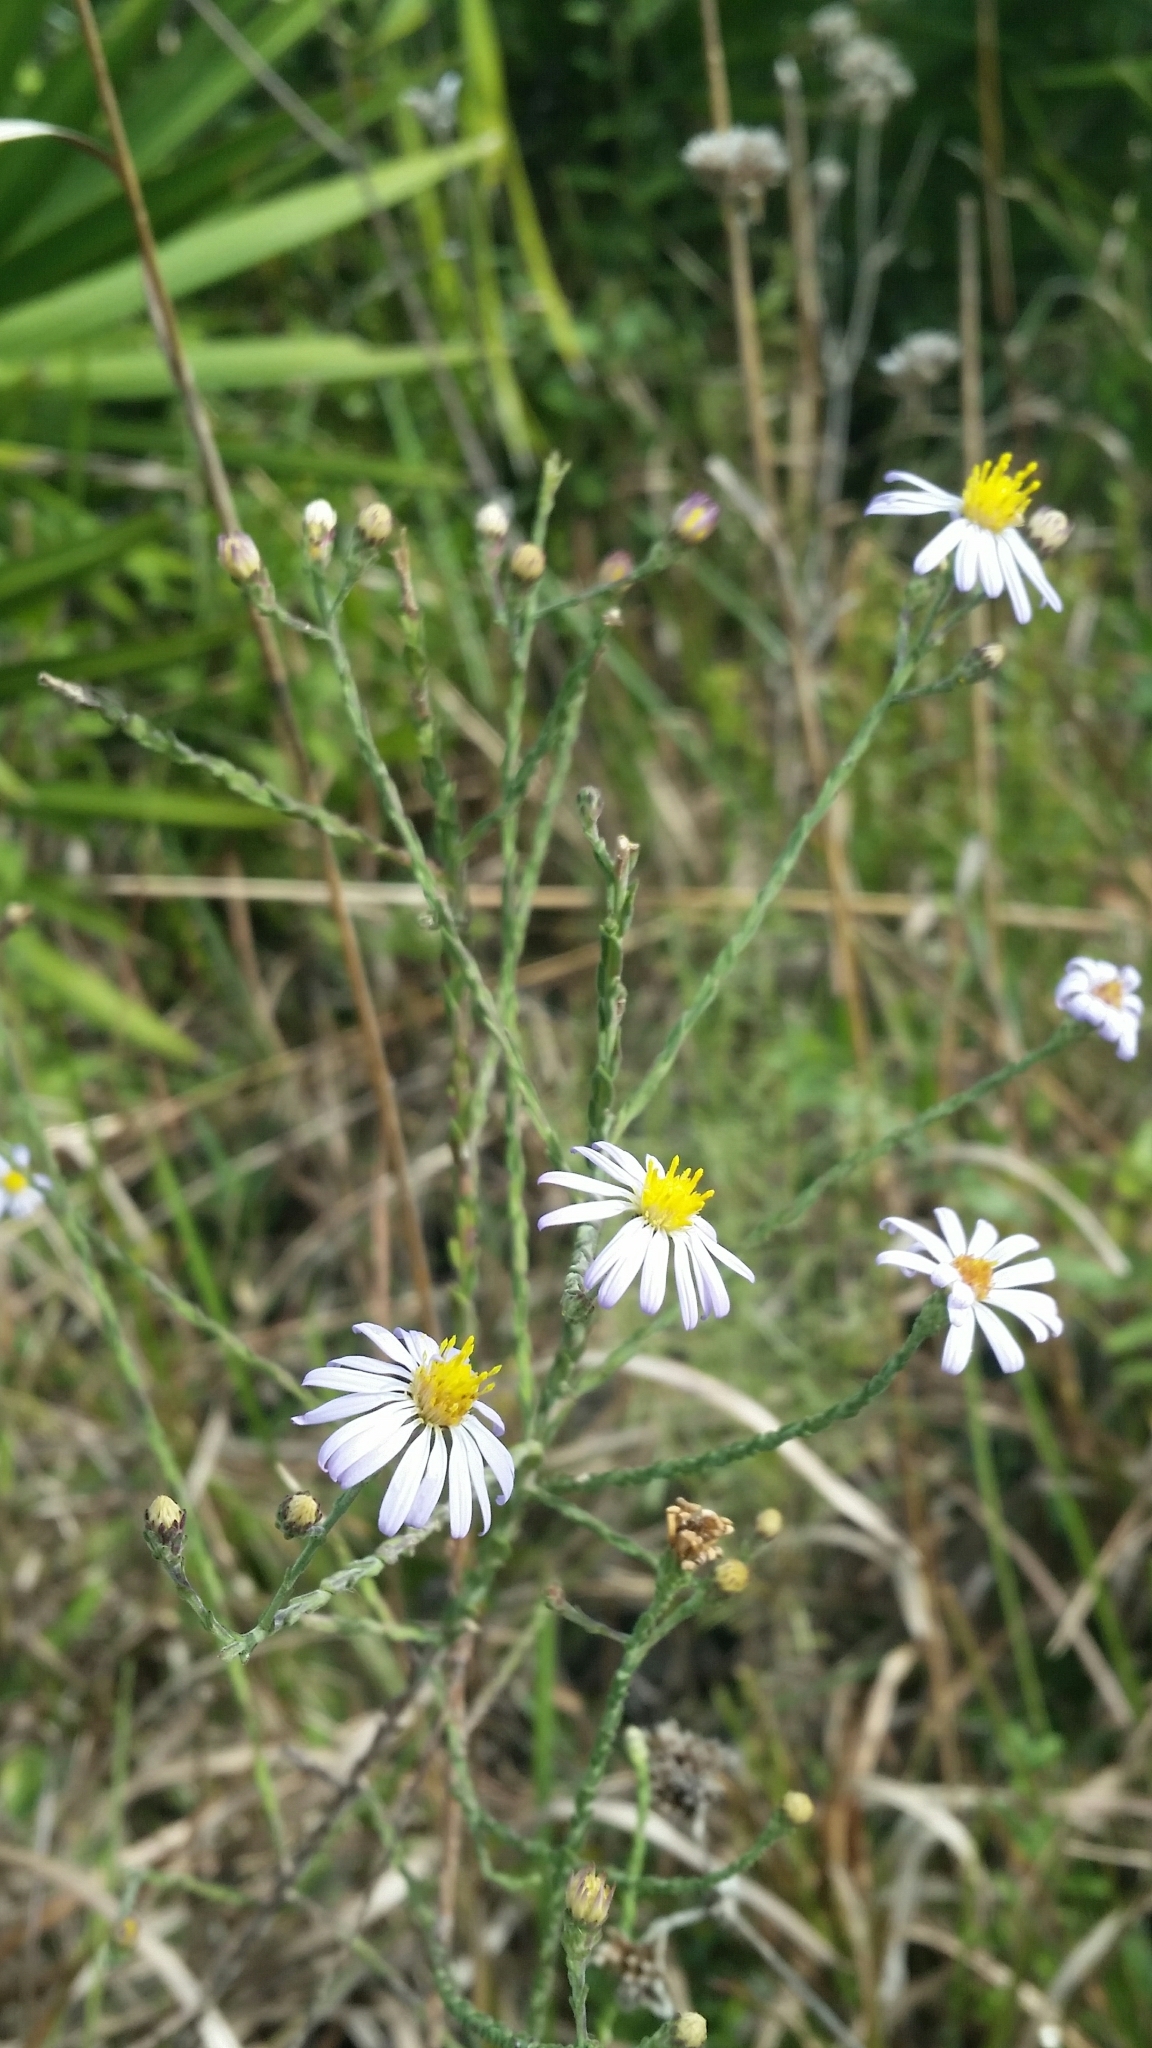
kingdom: Plantae
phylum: Tracheophyta
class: Magnoliopsida
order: Asterales
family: Asteraceae
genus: Symphyotrichum
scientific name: Symphyotrichum adnatum
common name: Scale-leaf aster
